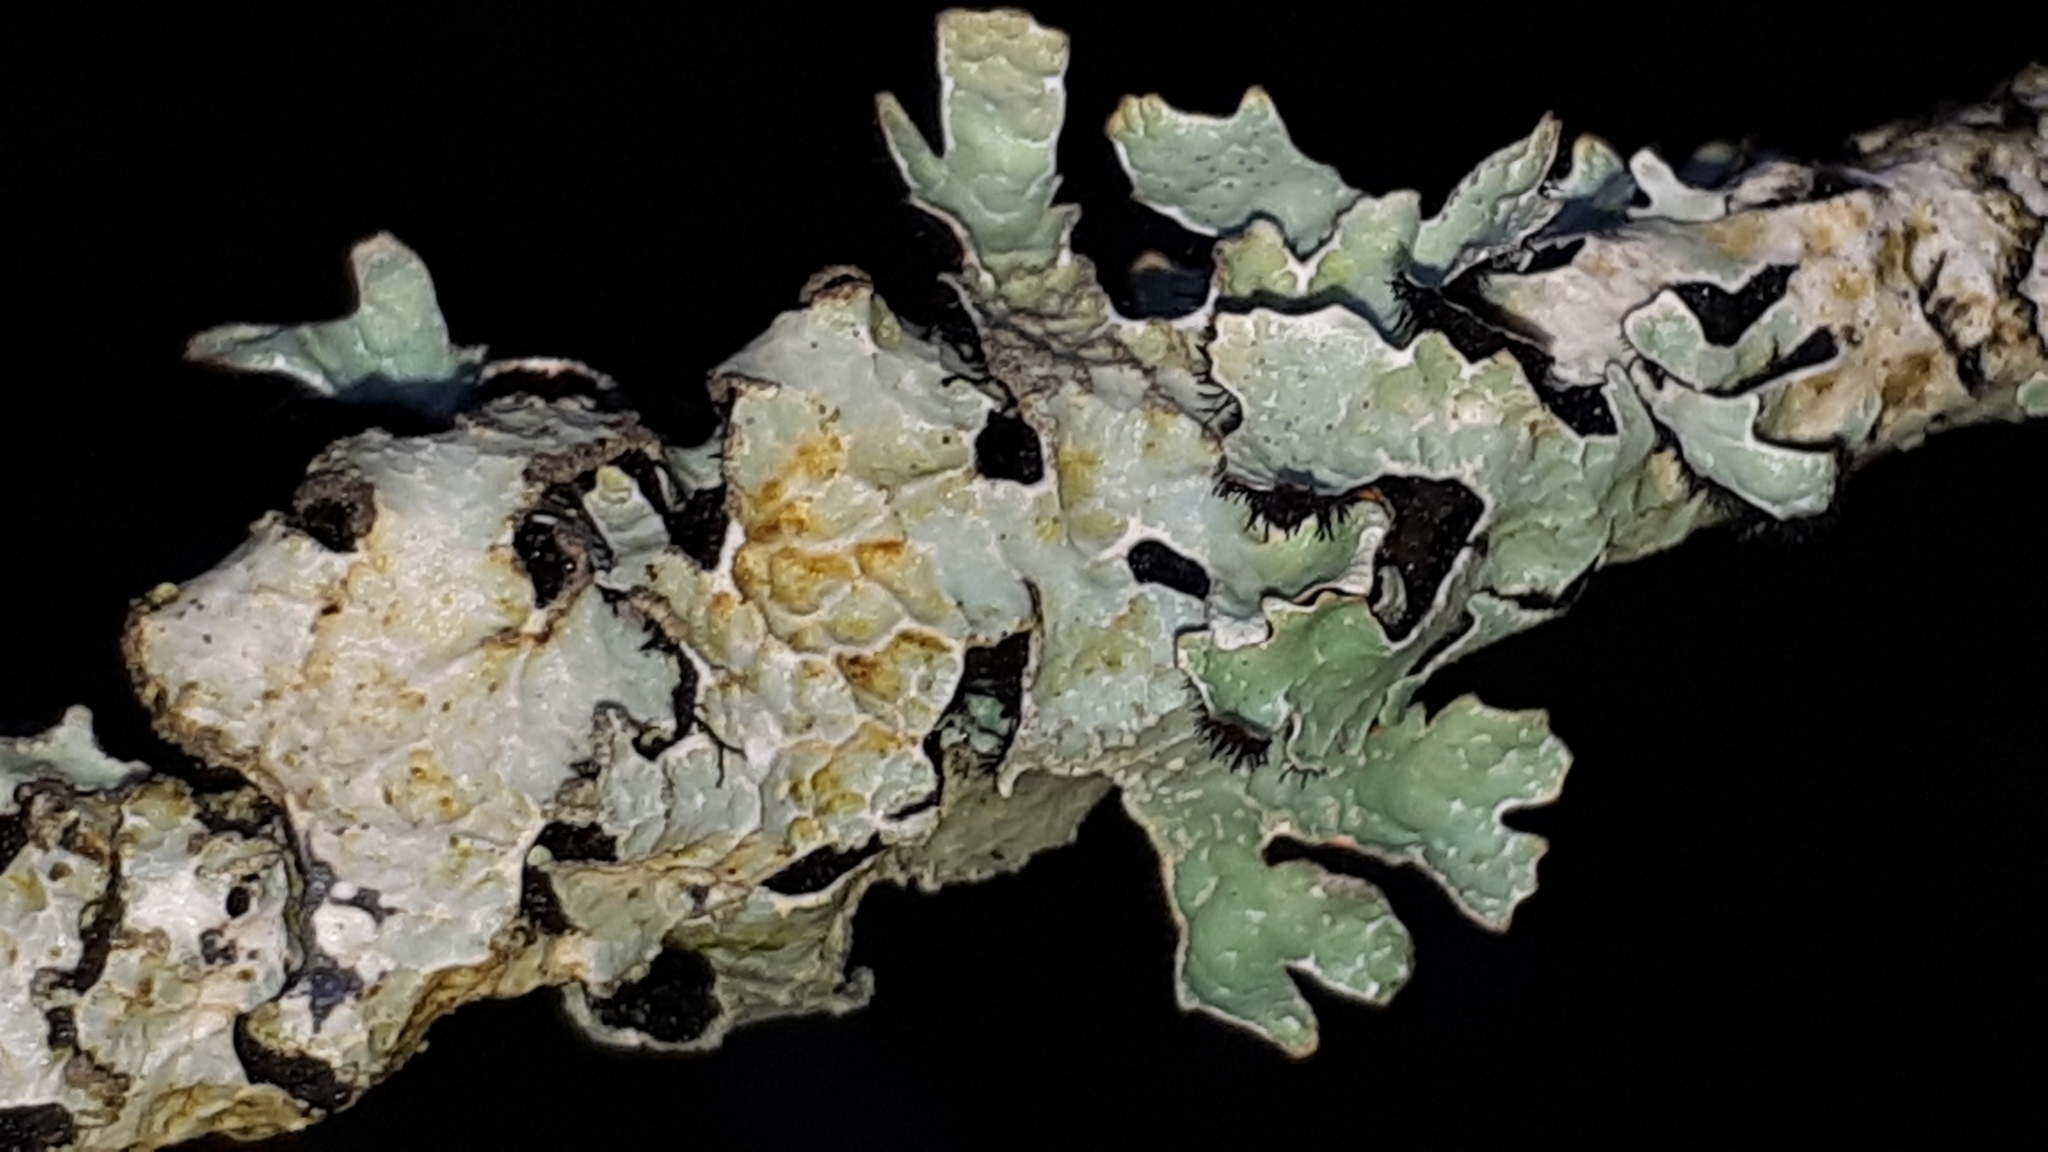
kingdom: Fungi
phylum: Ascomycota
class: Lecanoromycetes
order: Lecanorales
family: Parmeliaceae
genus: Parmelia
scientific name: Parmelia sulcata
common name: Netted shield lichen
